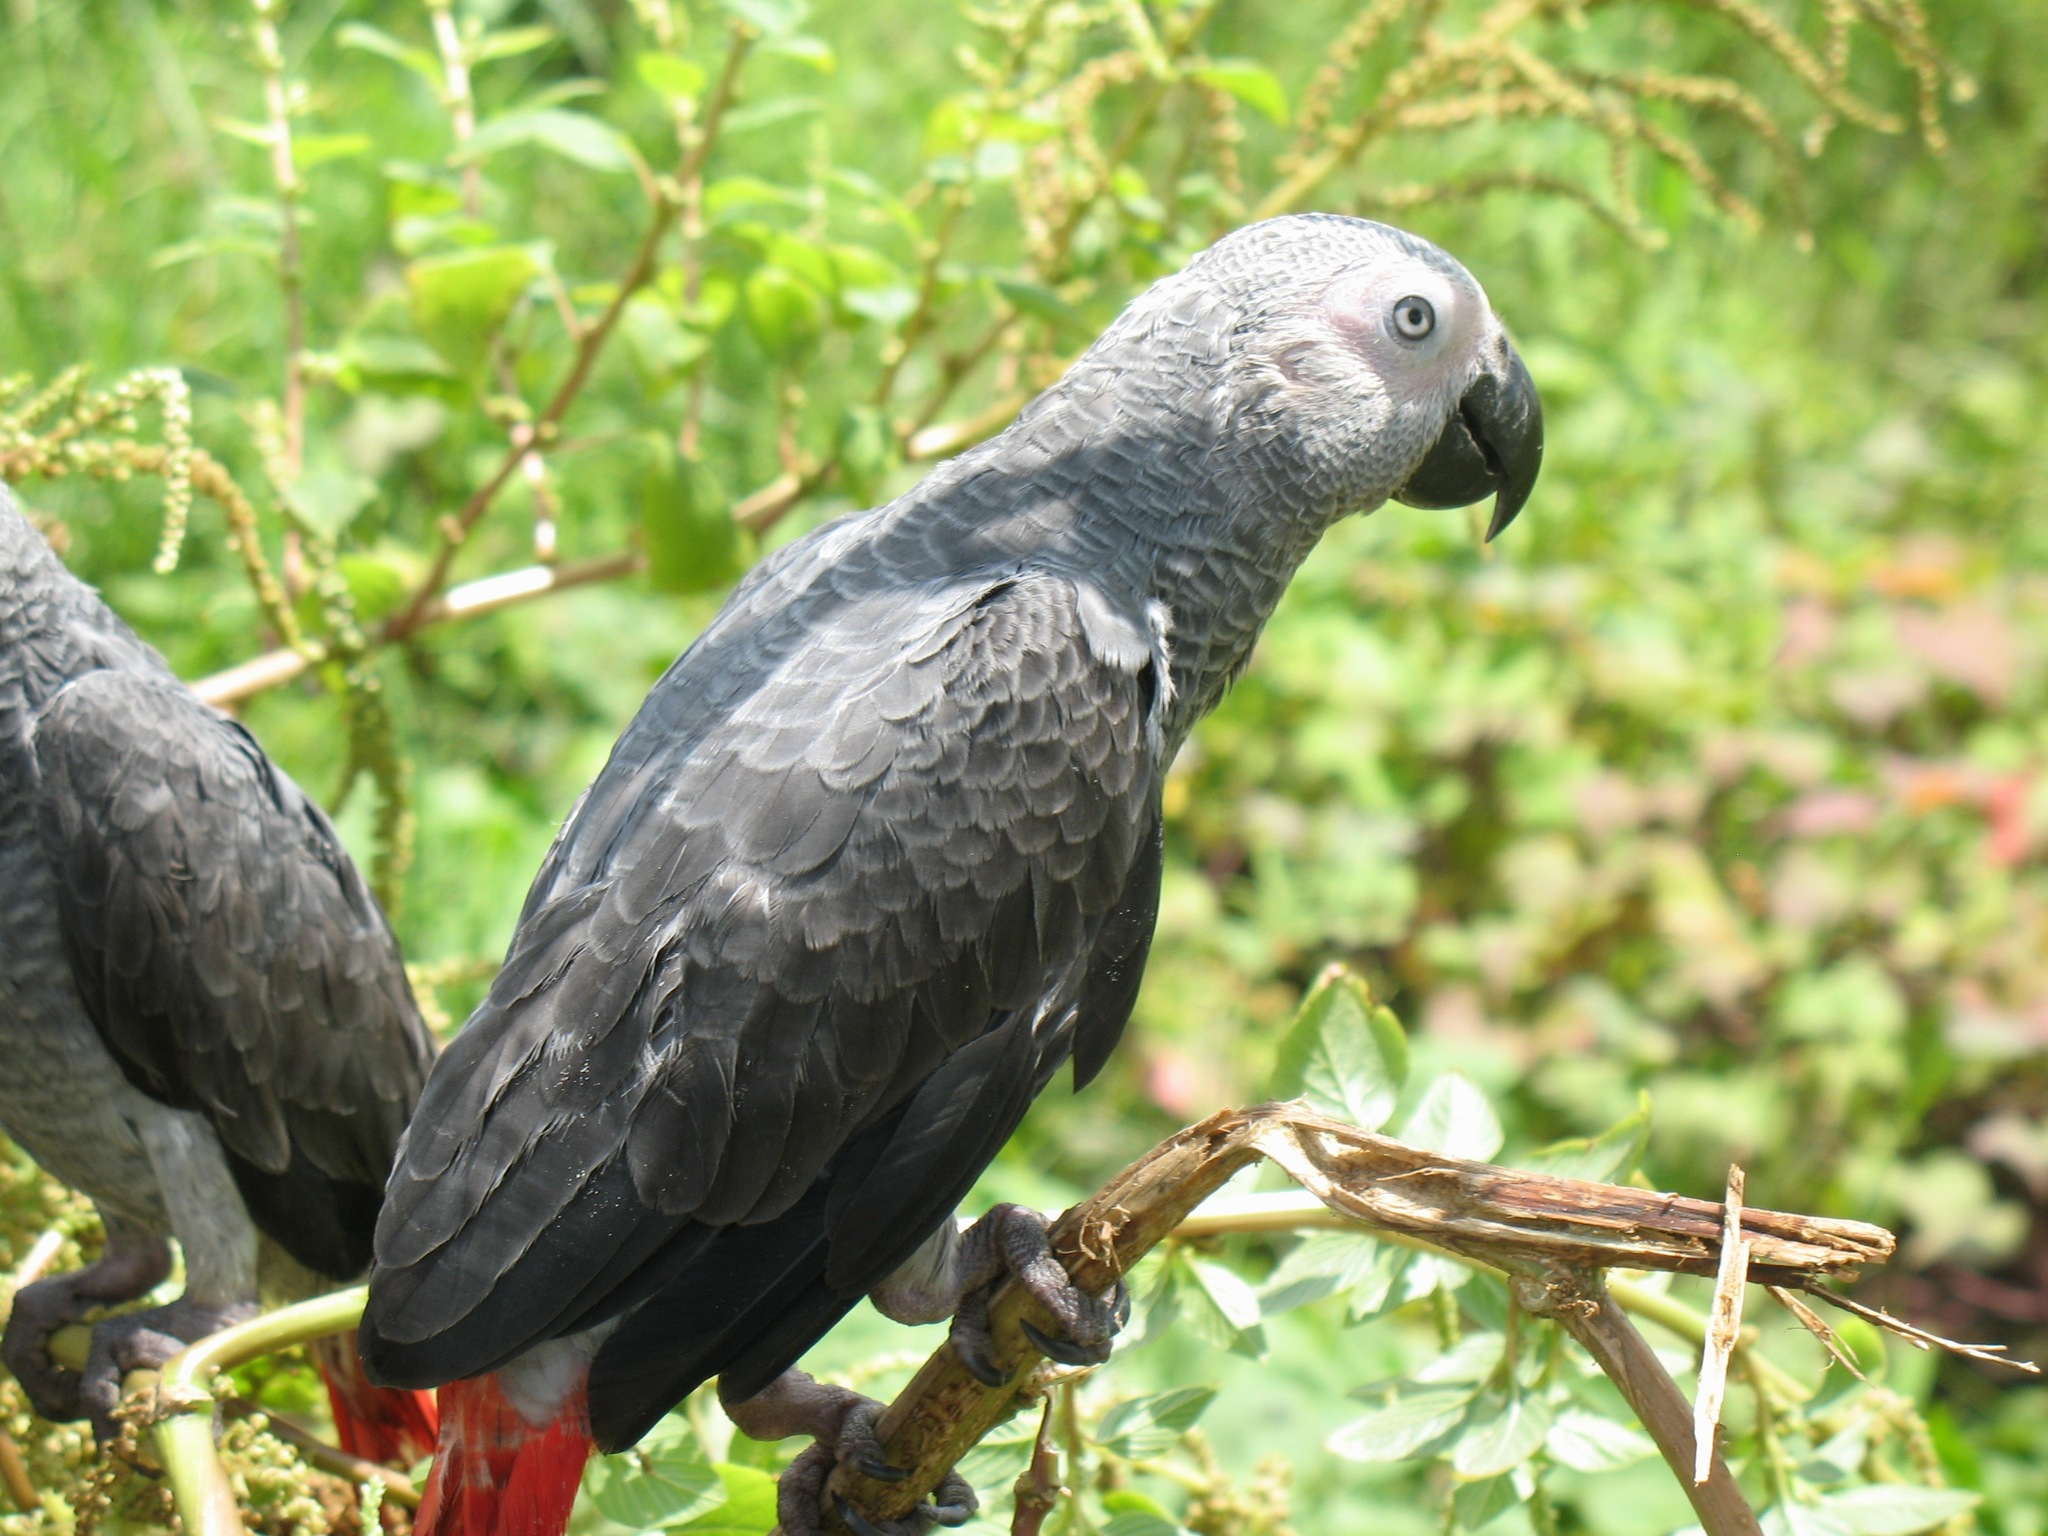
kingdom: Animalia
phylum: Chordata
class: Aves
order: Psittaciformes
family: Psittacidae
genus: Psittacus
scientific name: Psittacus erithacus
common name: Grey parrot
